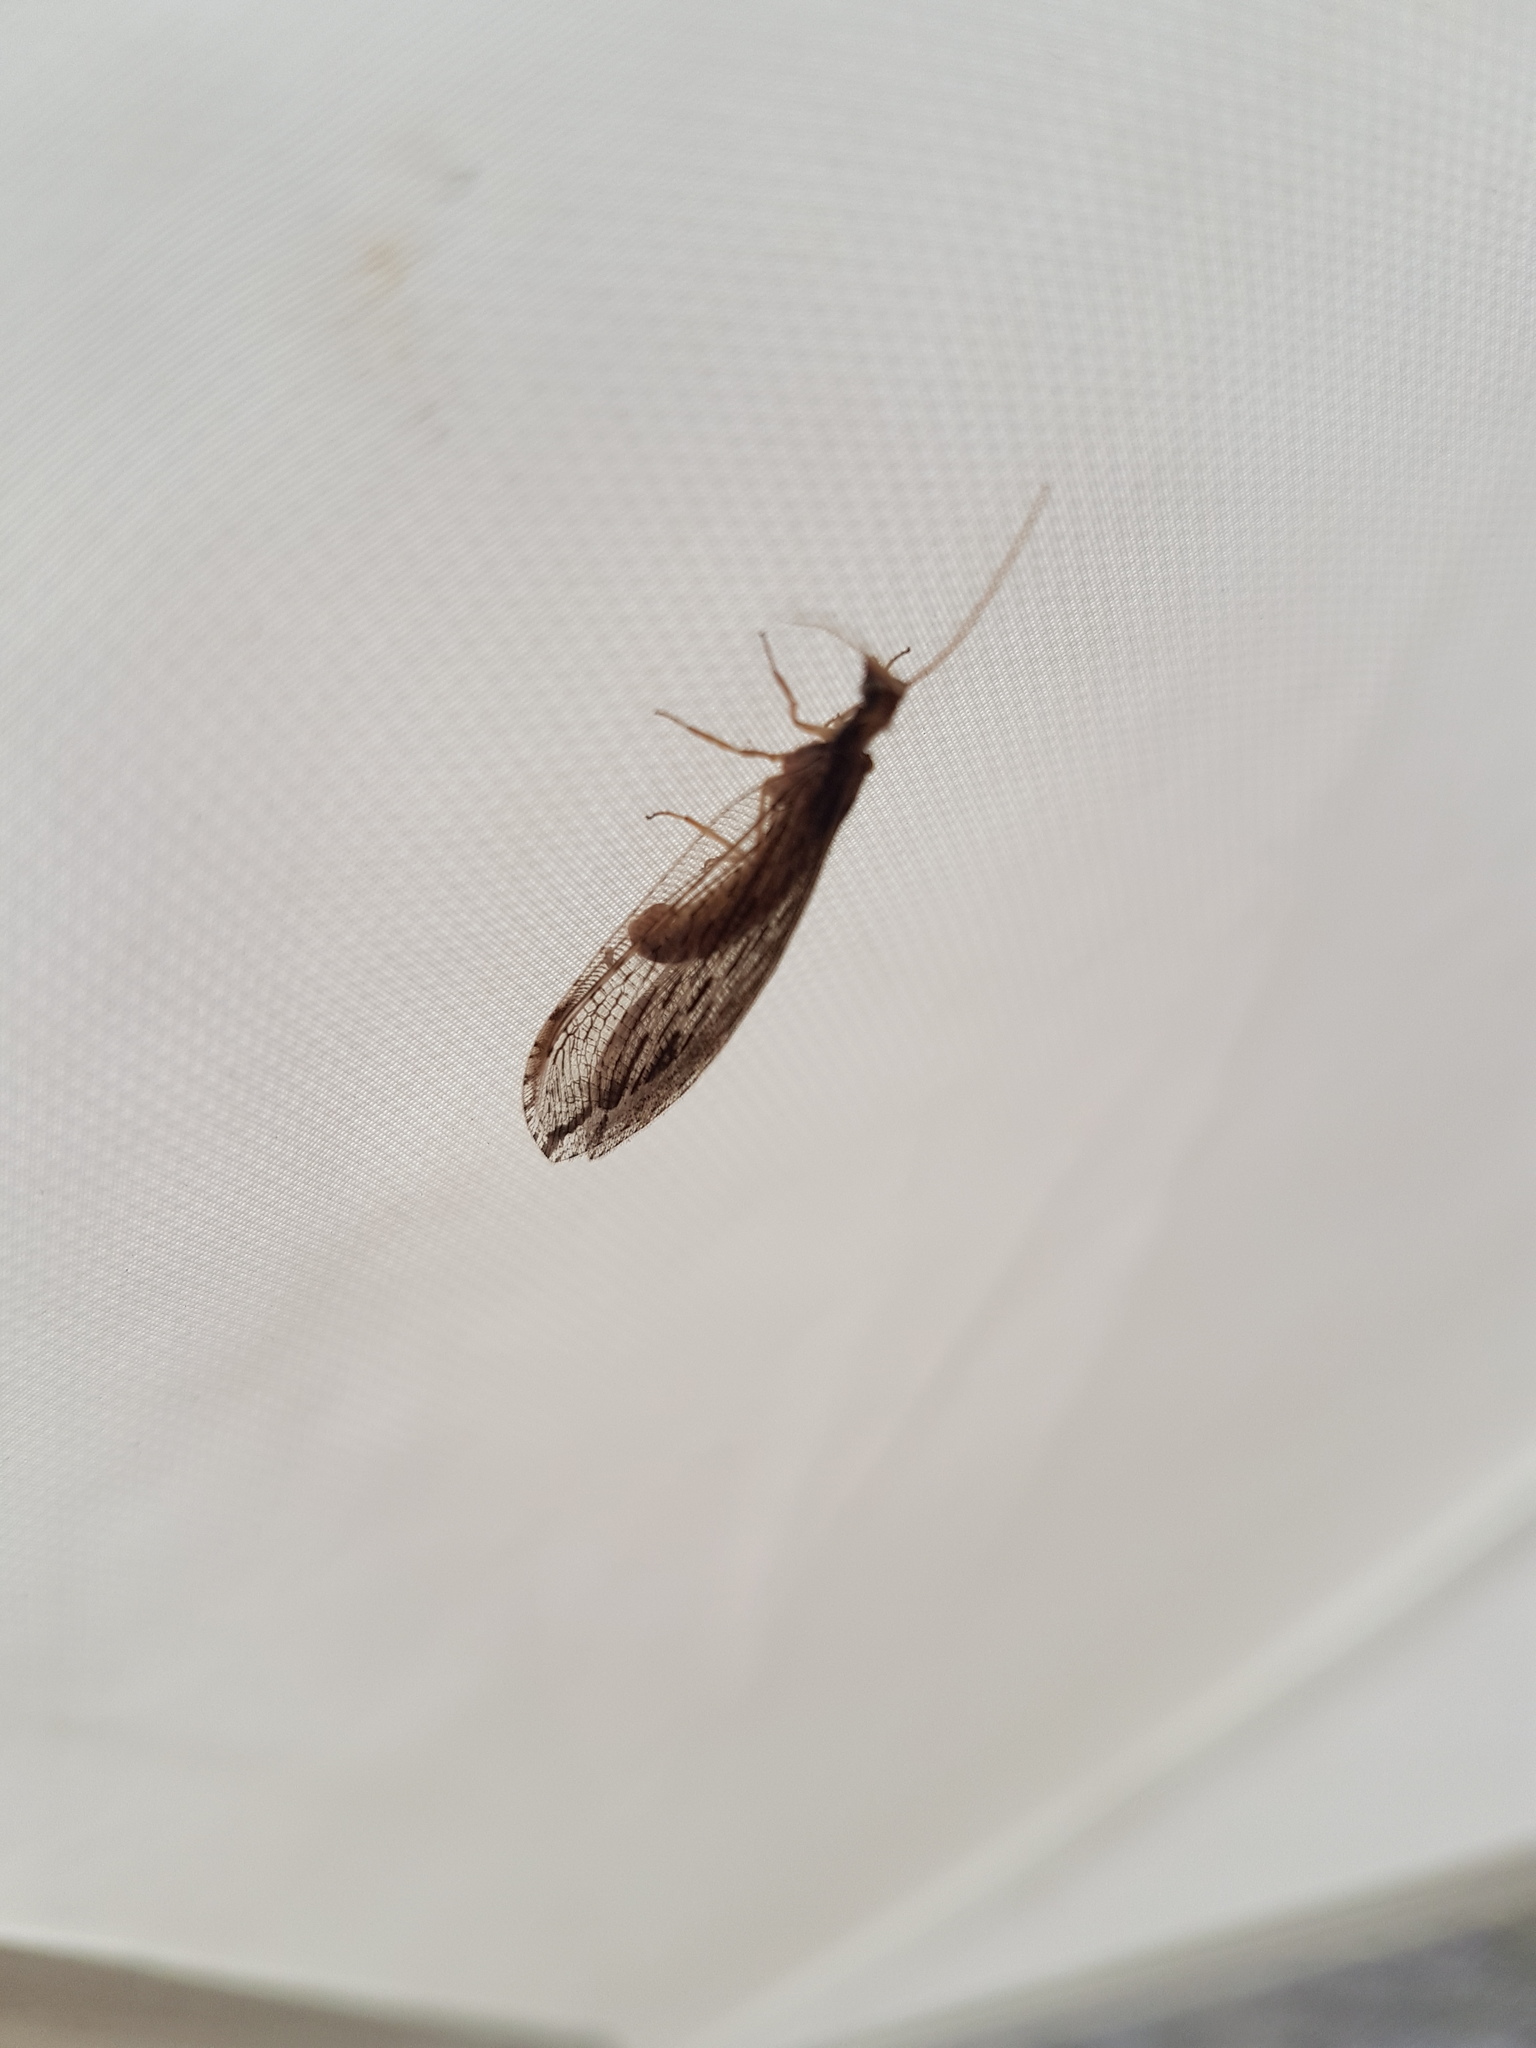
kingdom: Animalia
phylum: Arthropoda
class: Insecta
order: Neuroptera
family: Osmylidae
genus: Stenosmylus
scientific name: Stenosmylus stenopterus
